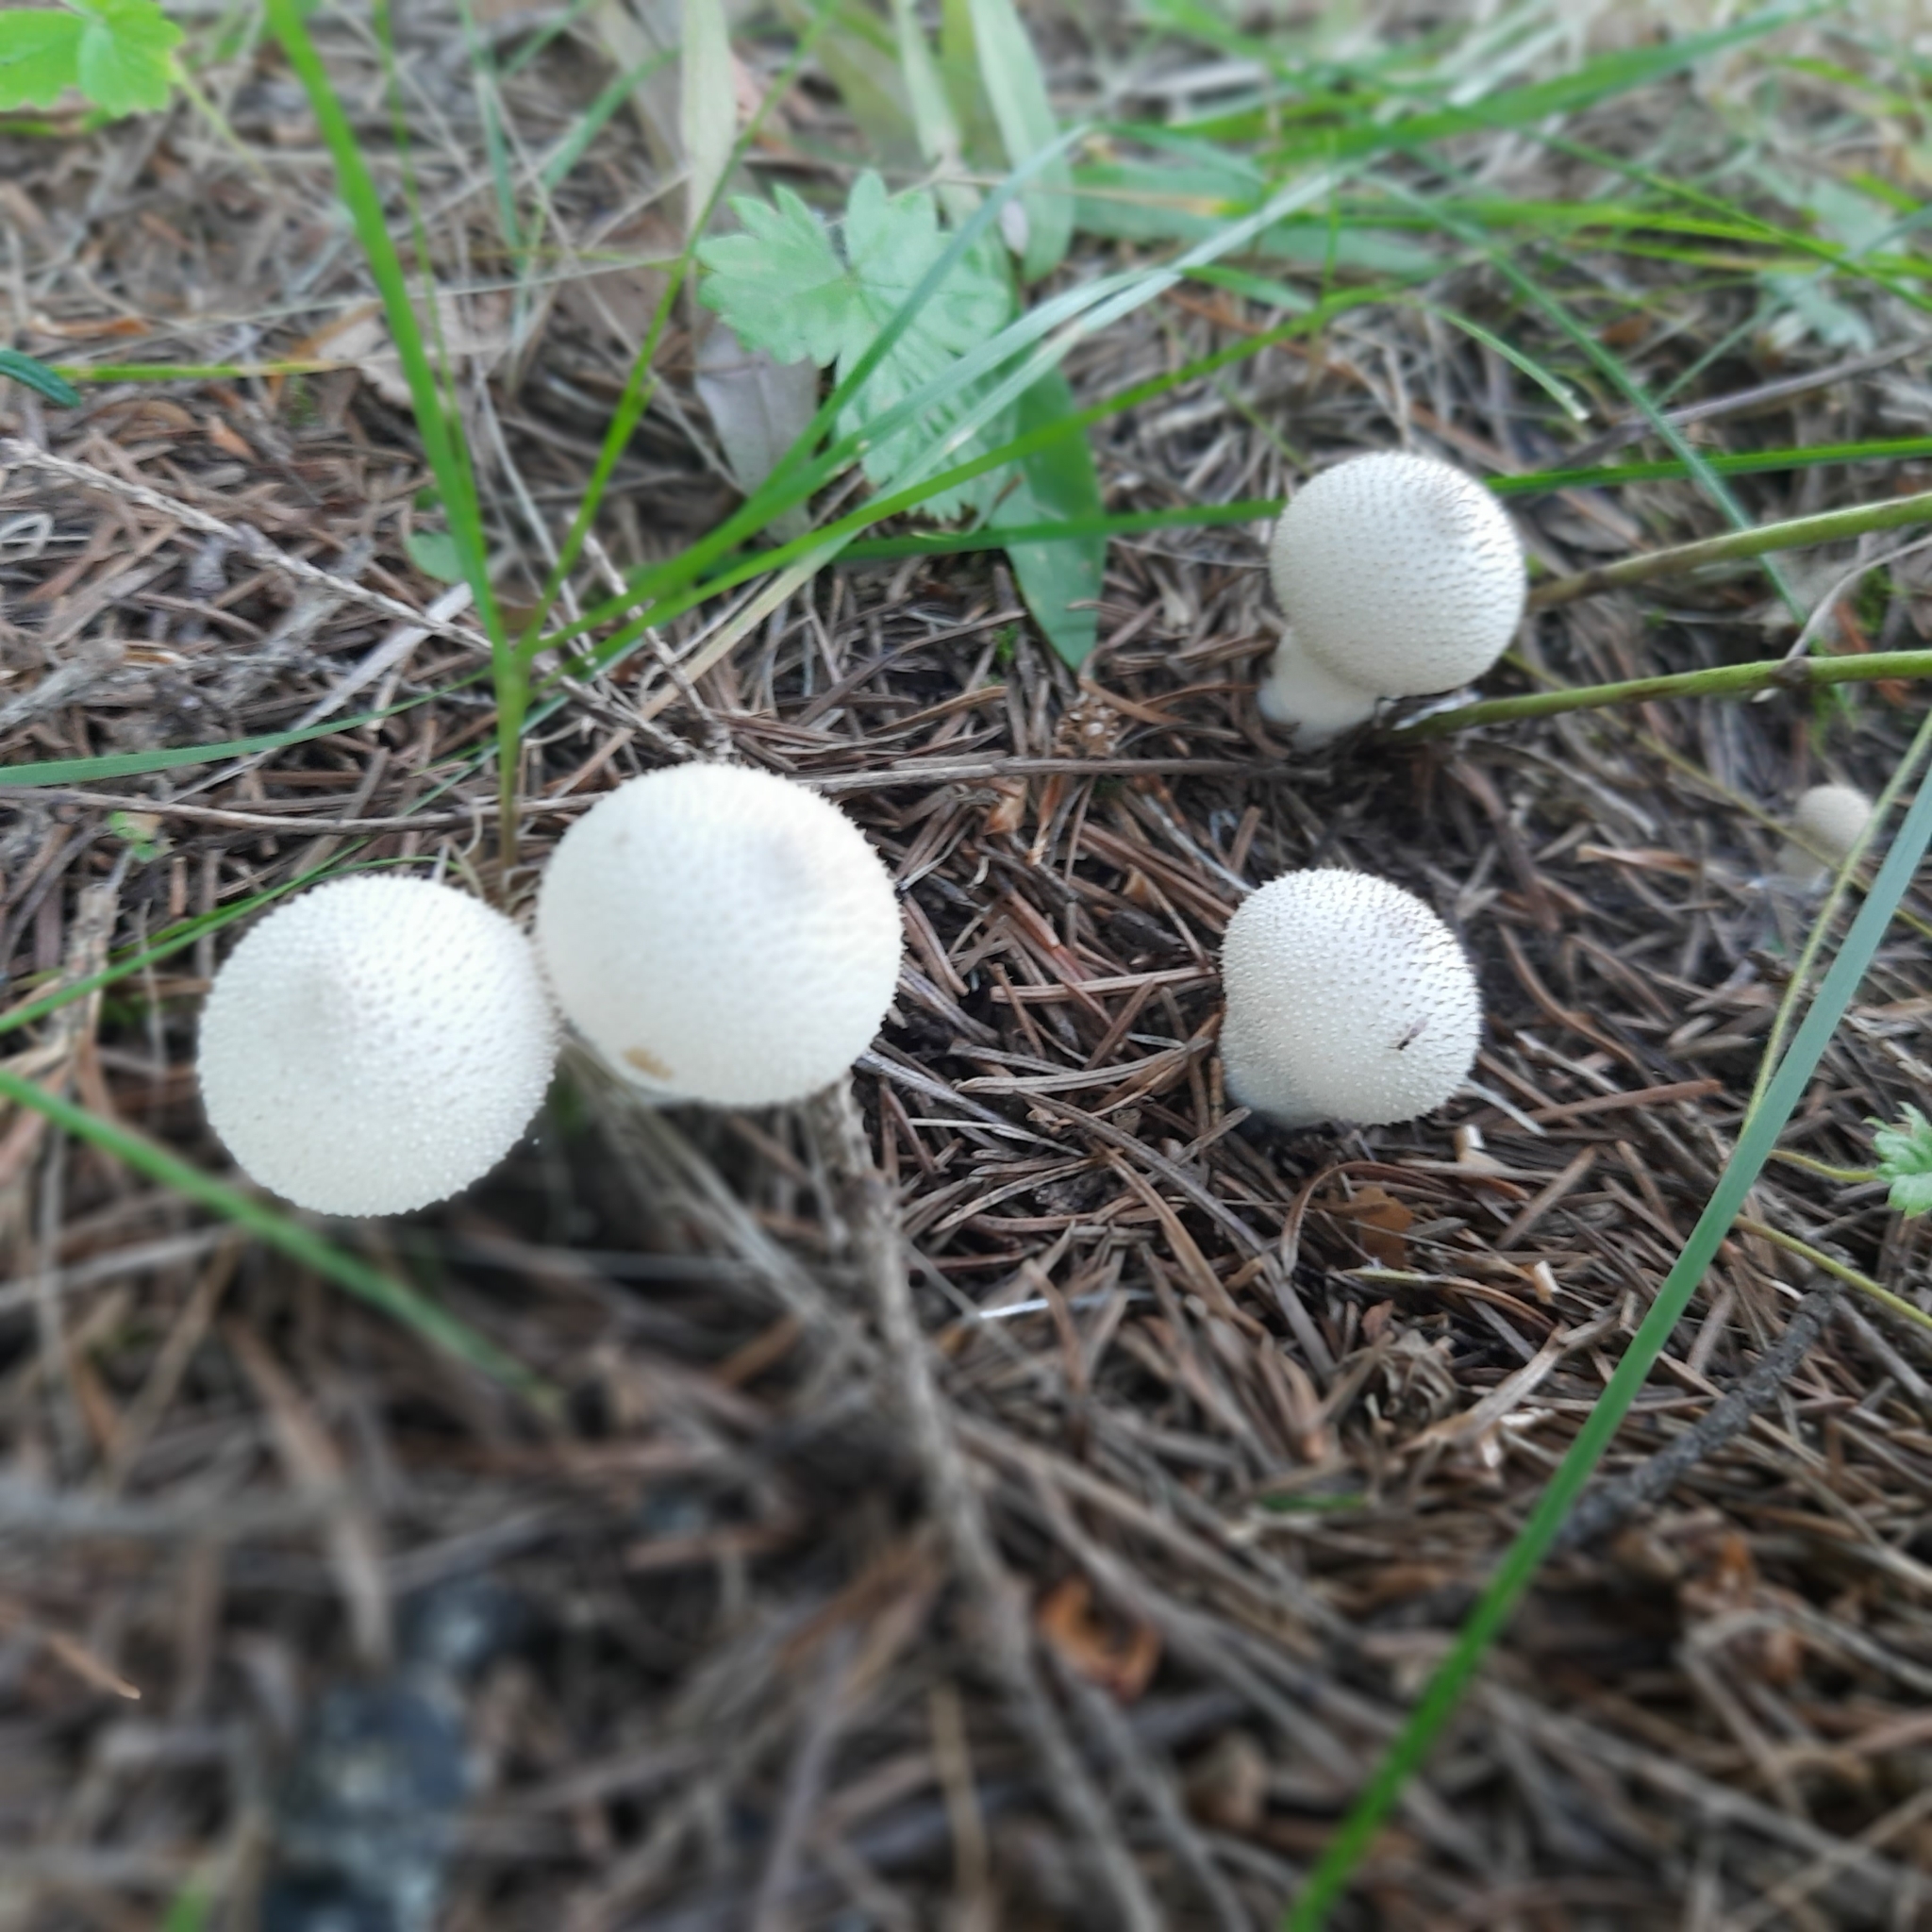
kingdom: Fungi
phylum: Basidiomycota
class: Agaricomycetes
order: Agaricales
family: Lycoperdaceae
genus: Lycoperdon
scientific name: Lycoperdon perlatum
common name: Common puffball
